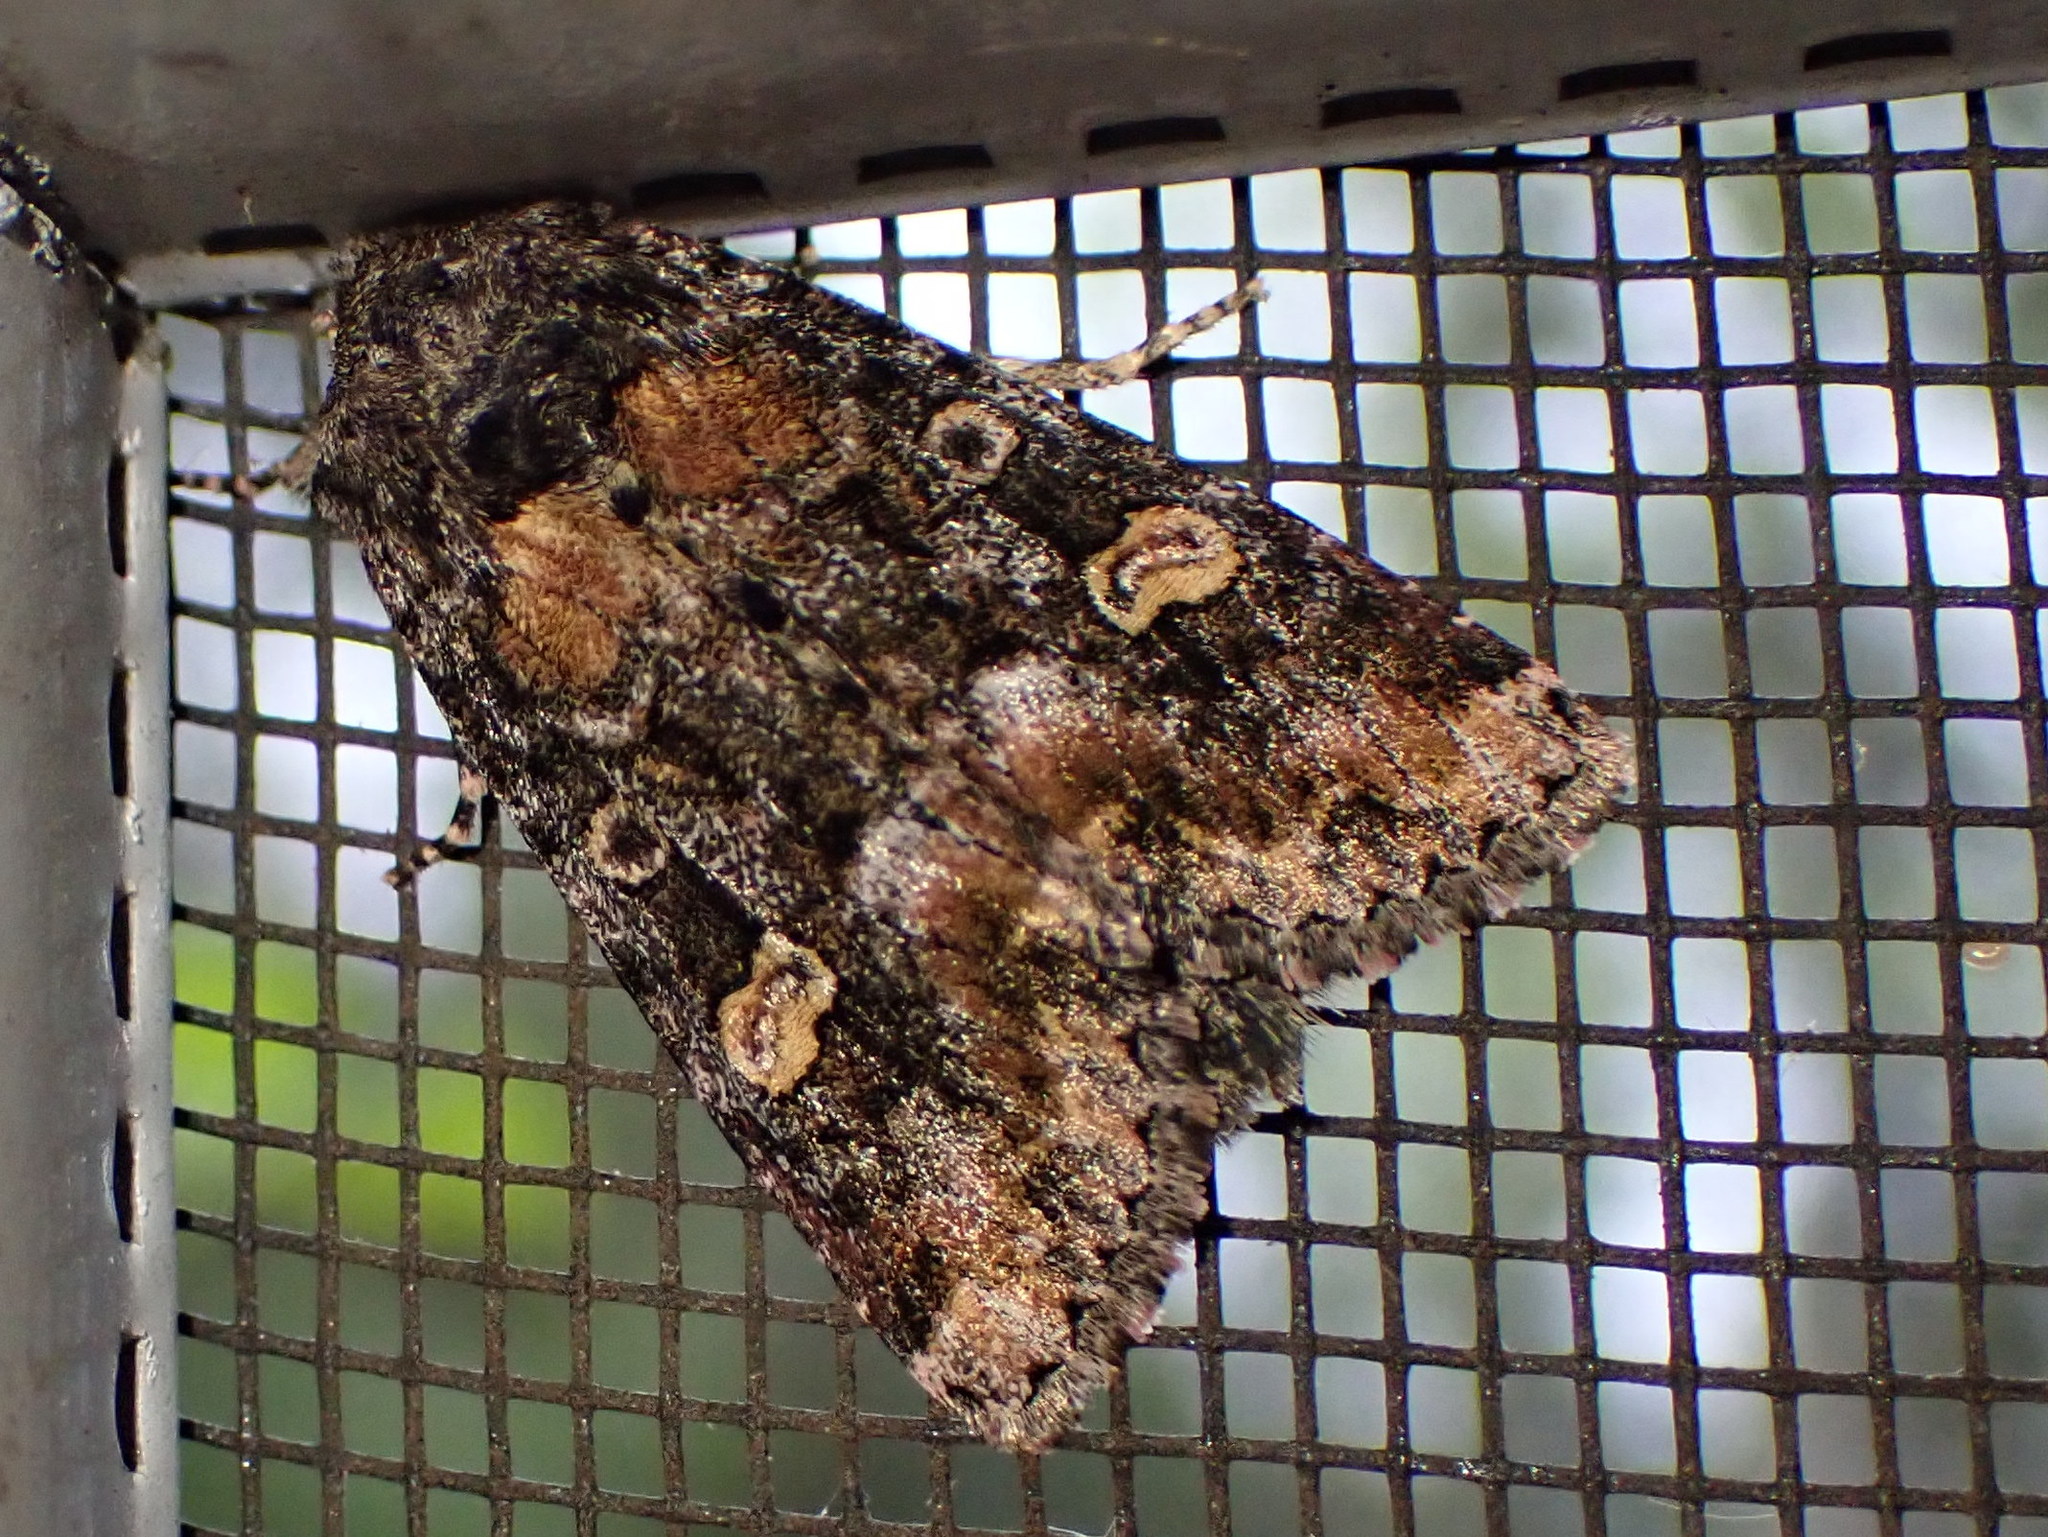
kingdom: Animalia
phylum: Arthropoda
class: Insecta
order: Lepidoptera
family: Noctuidae
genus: Spiramater
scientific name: Spiramater lutra
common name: Otter spiramater moth
